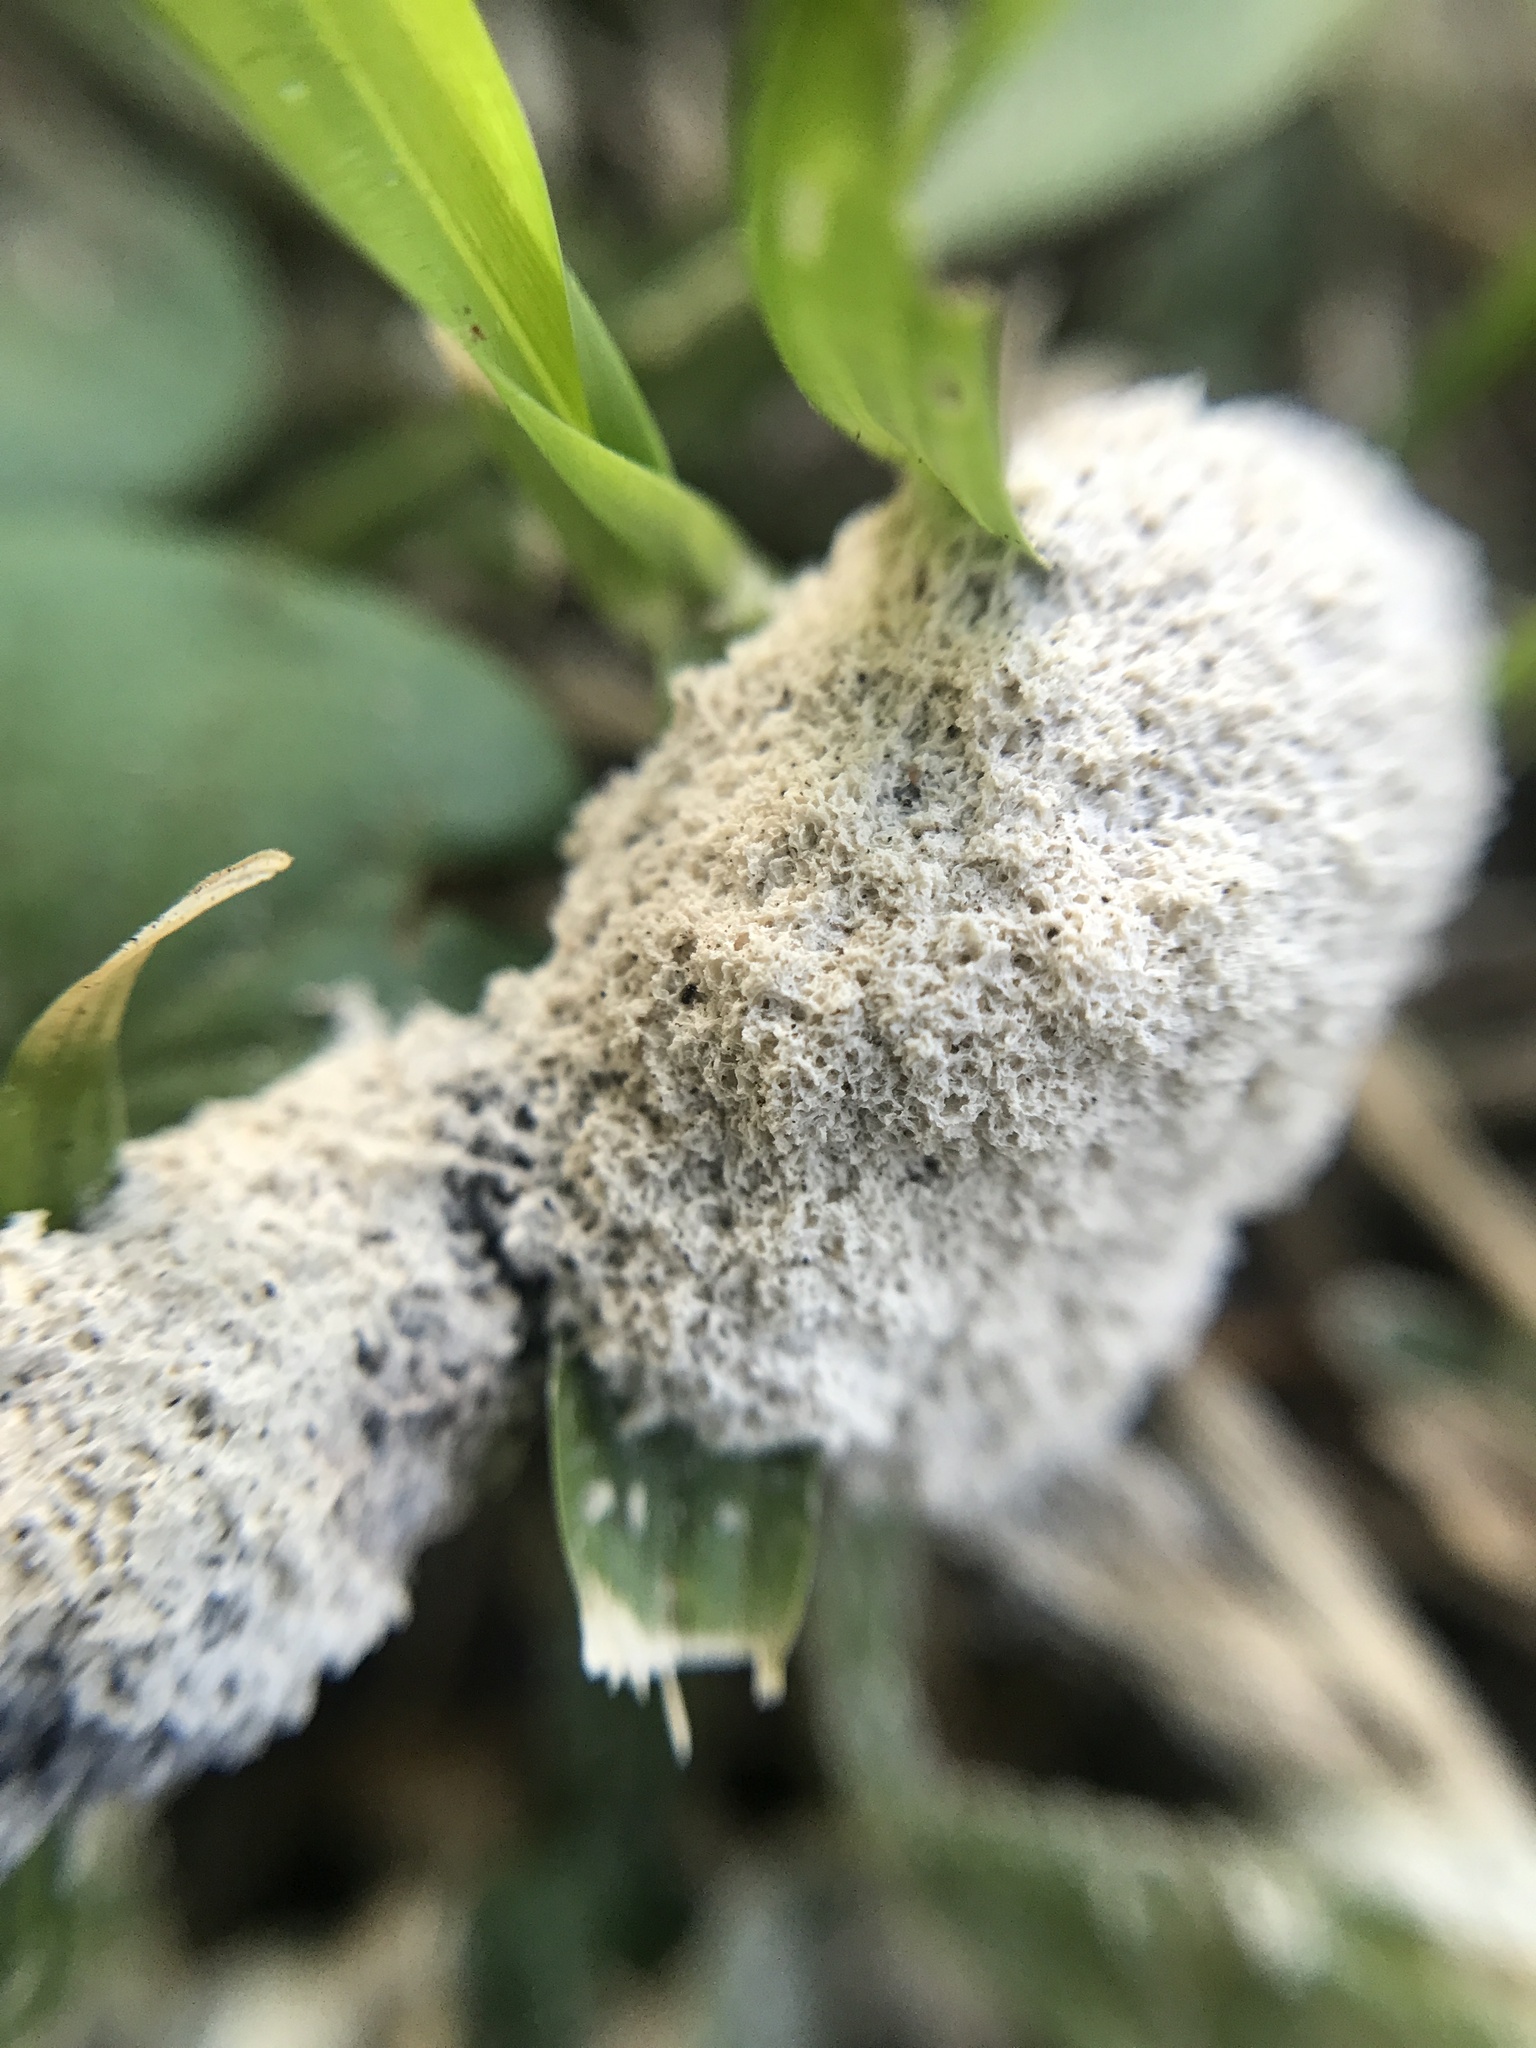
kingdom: Protozoa
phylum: Mycetozoa
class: Myxomycetes
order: Physarales
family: Physaraceae
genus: Didymium
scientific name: Didymium
